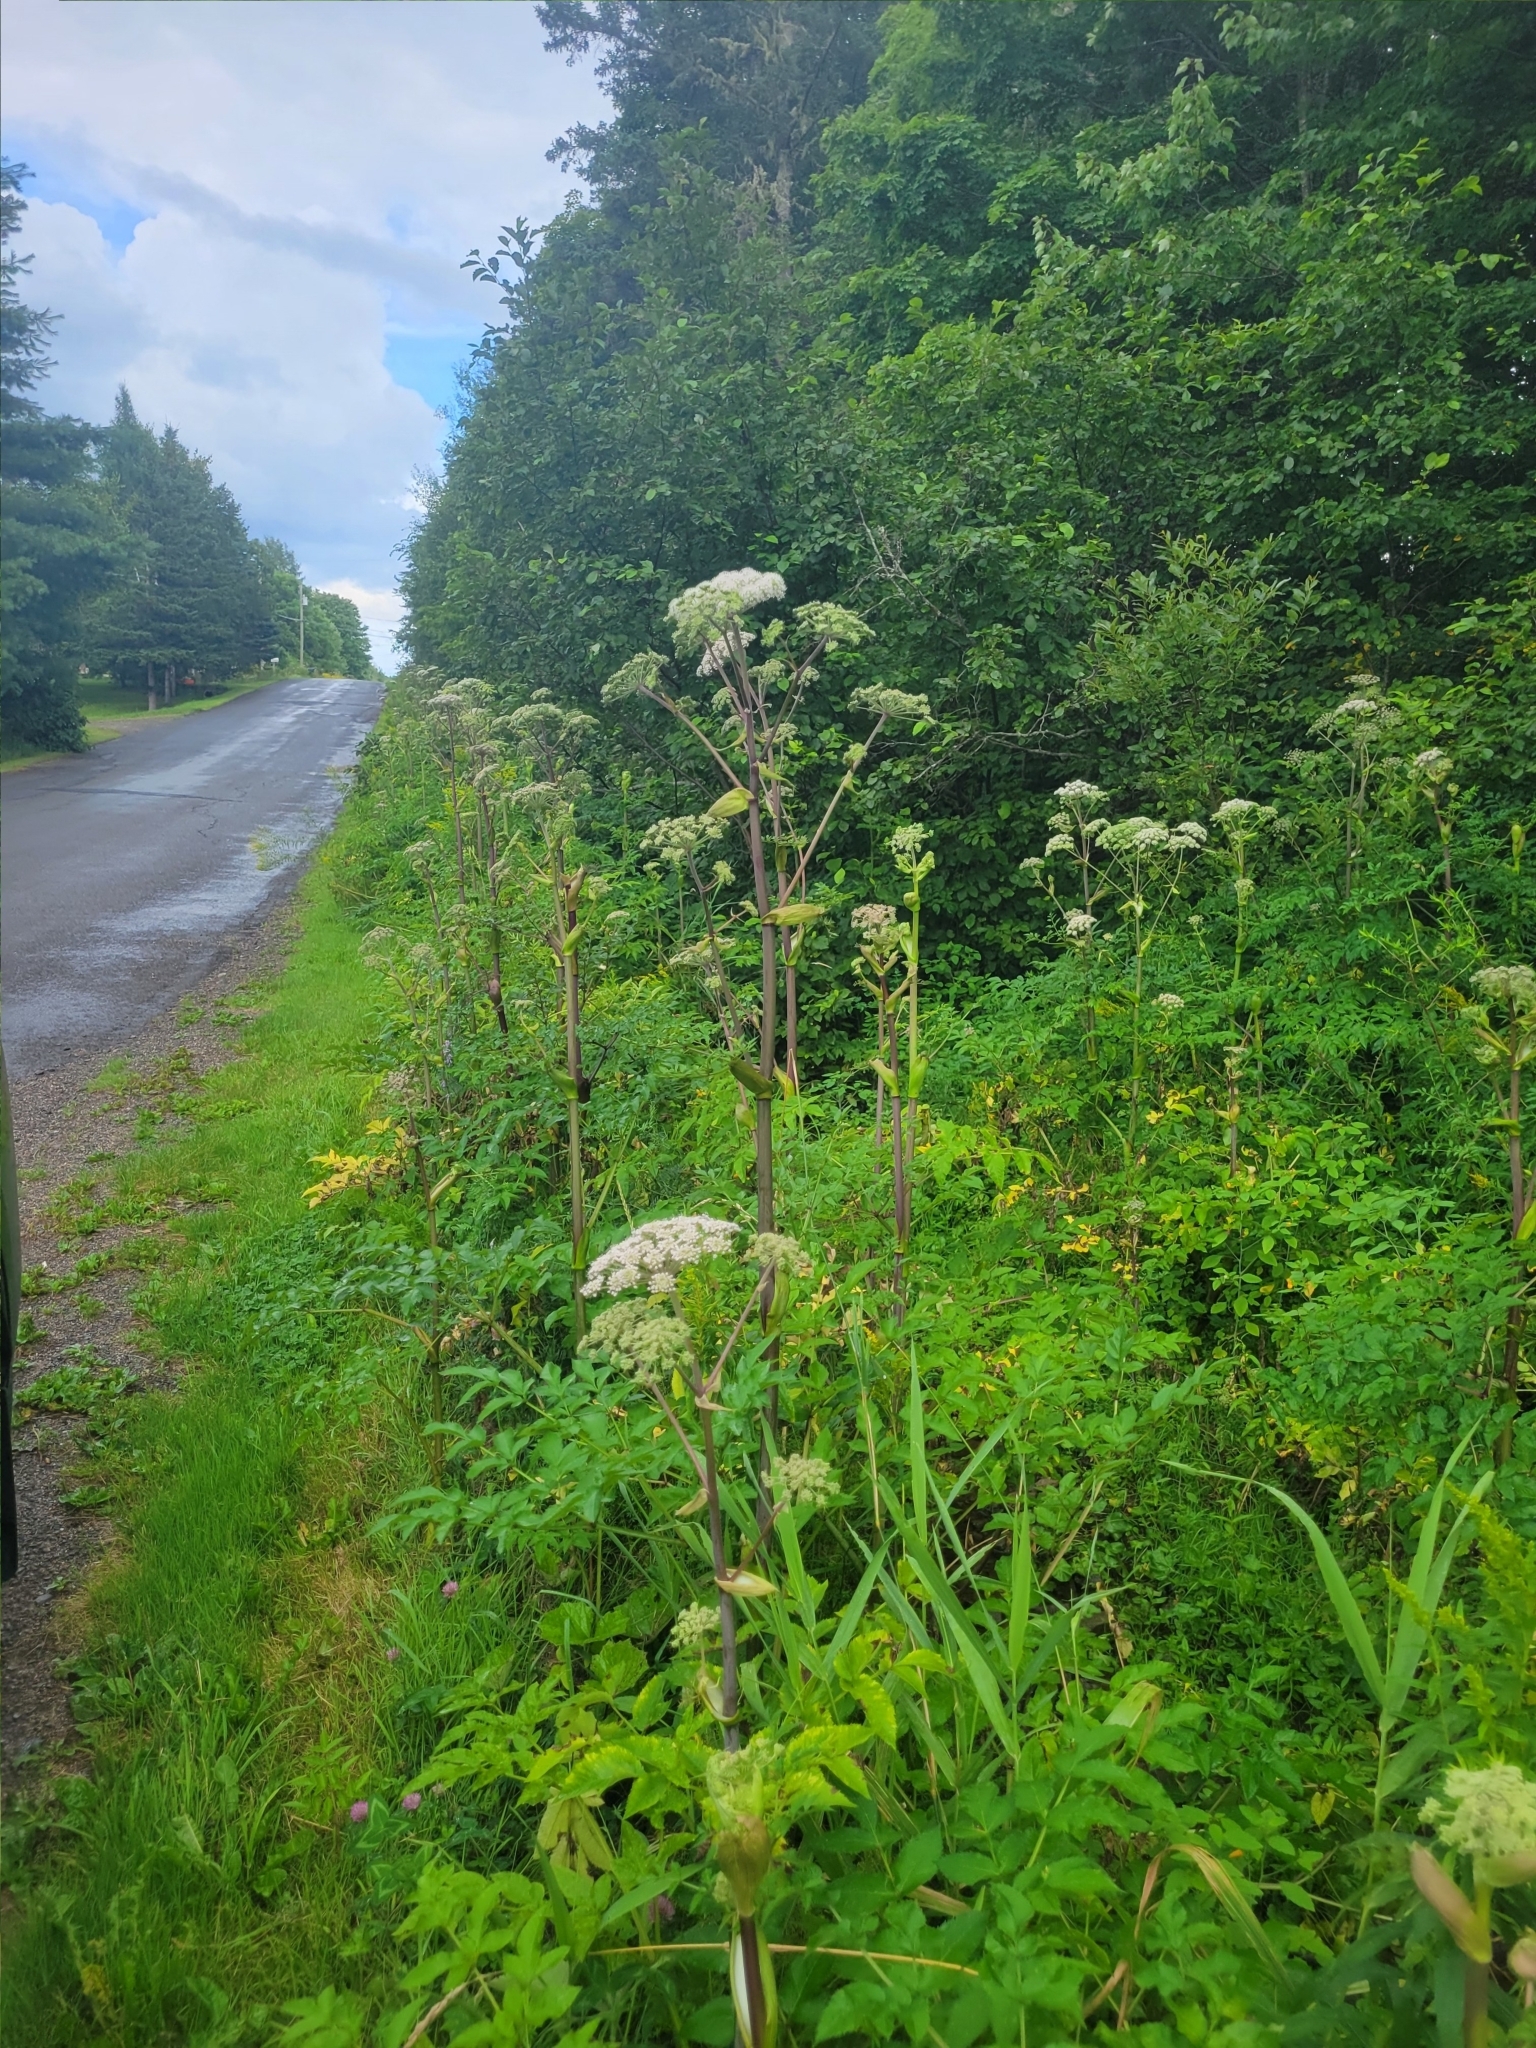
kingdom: Plantae
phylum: Tracheophyta
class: Magnoliopsida
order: Apiales
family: Apiaceae
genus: Angelica
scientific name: Angelica sylvestris
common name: Wild angelica
